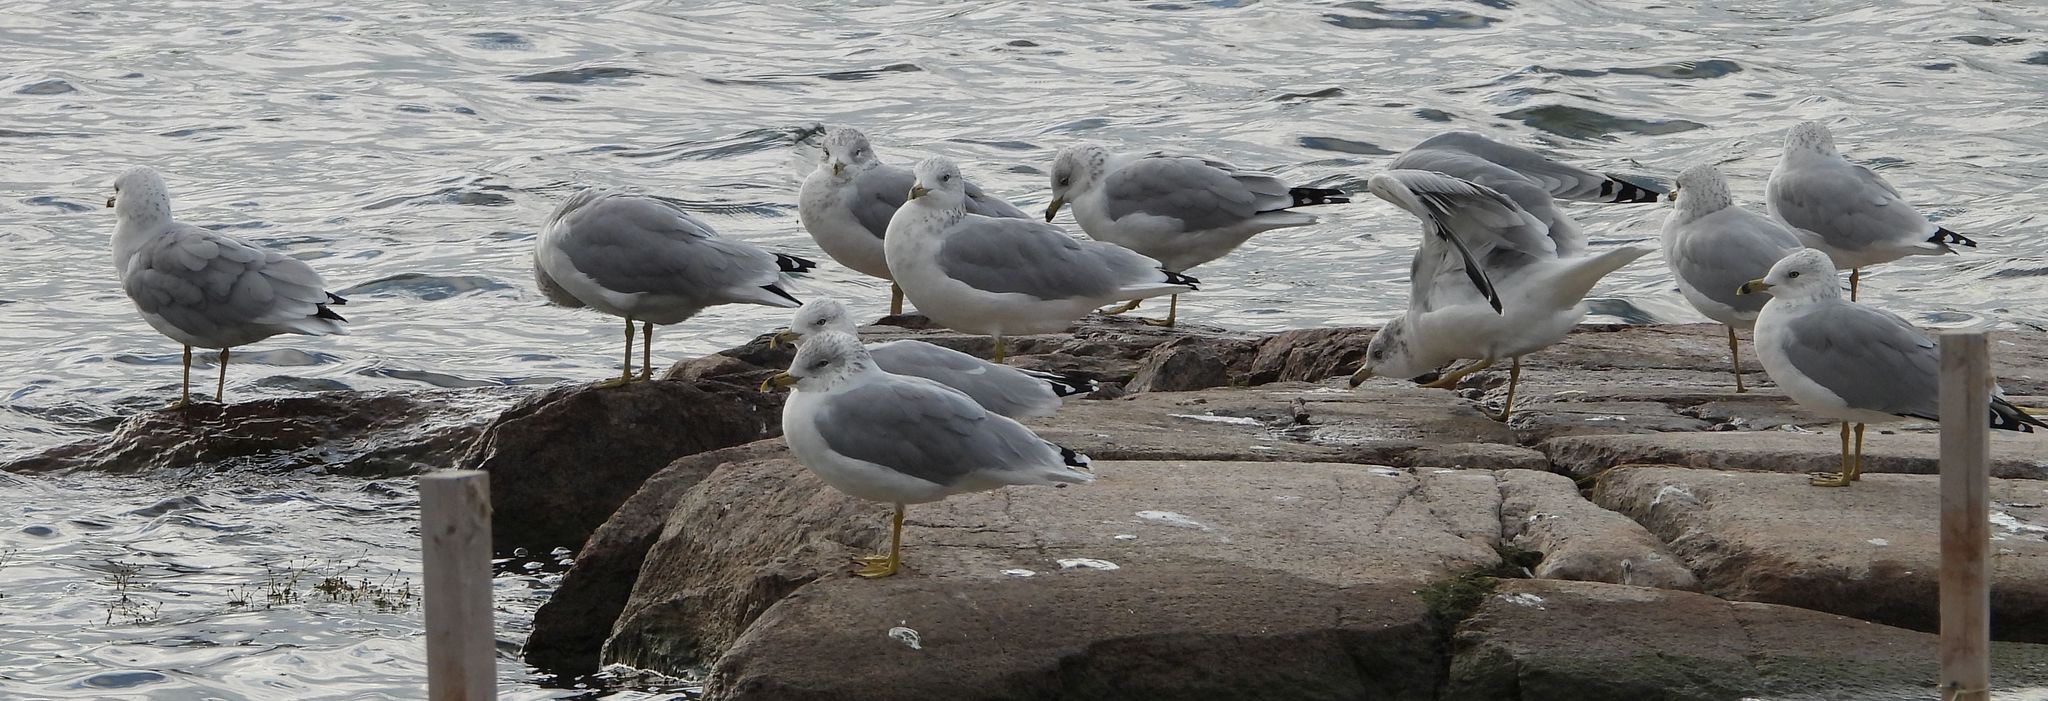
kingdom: Animalia
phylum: Chordata
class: Aves
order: Charadriiformes
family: Laridae
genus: Larus
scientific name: Larus delawarensis
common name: Ring-billed gull
